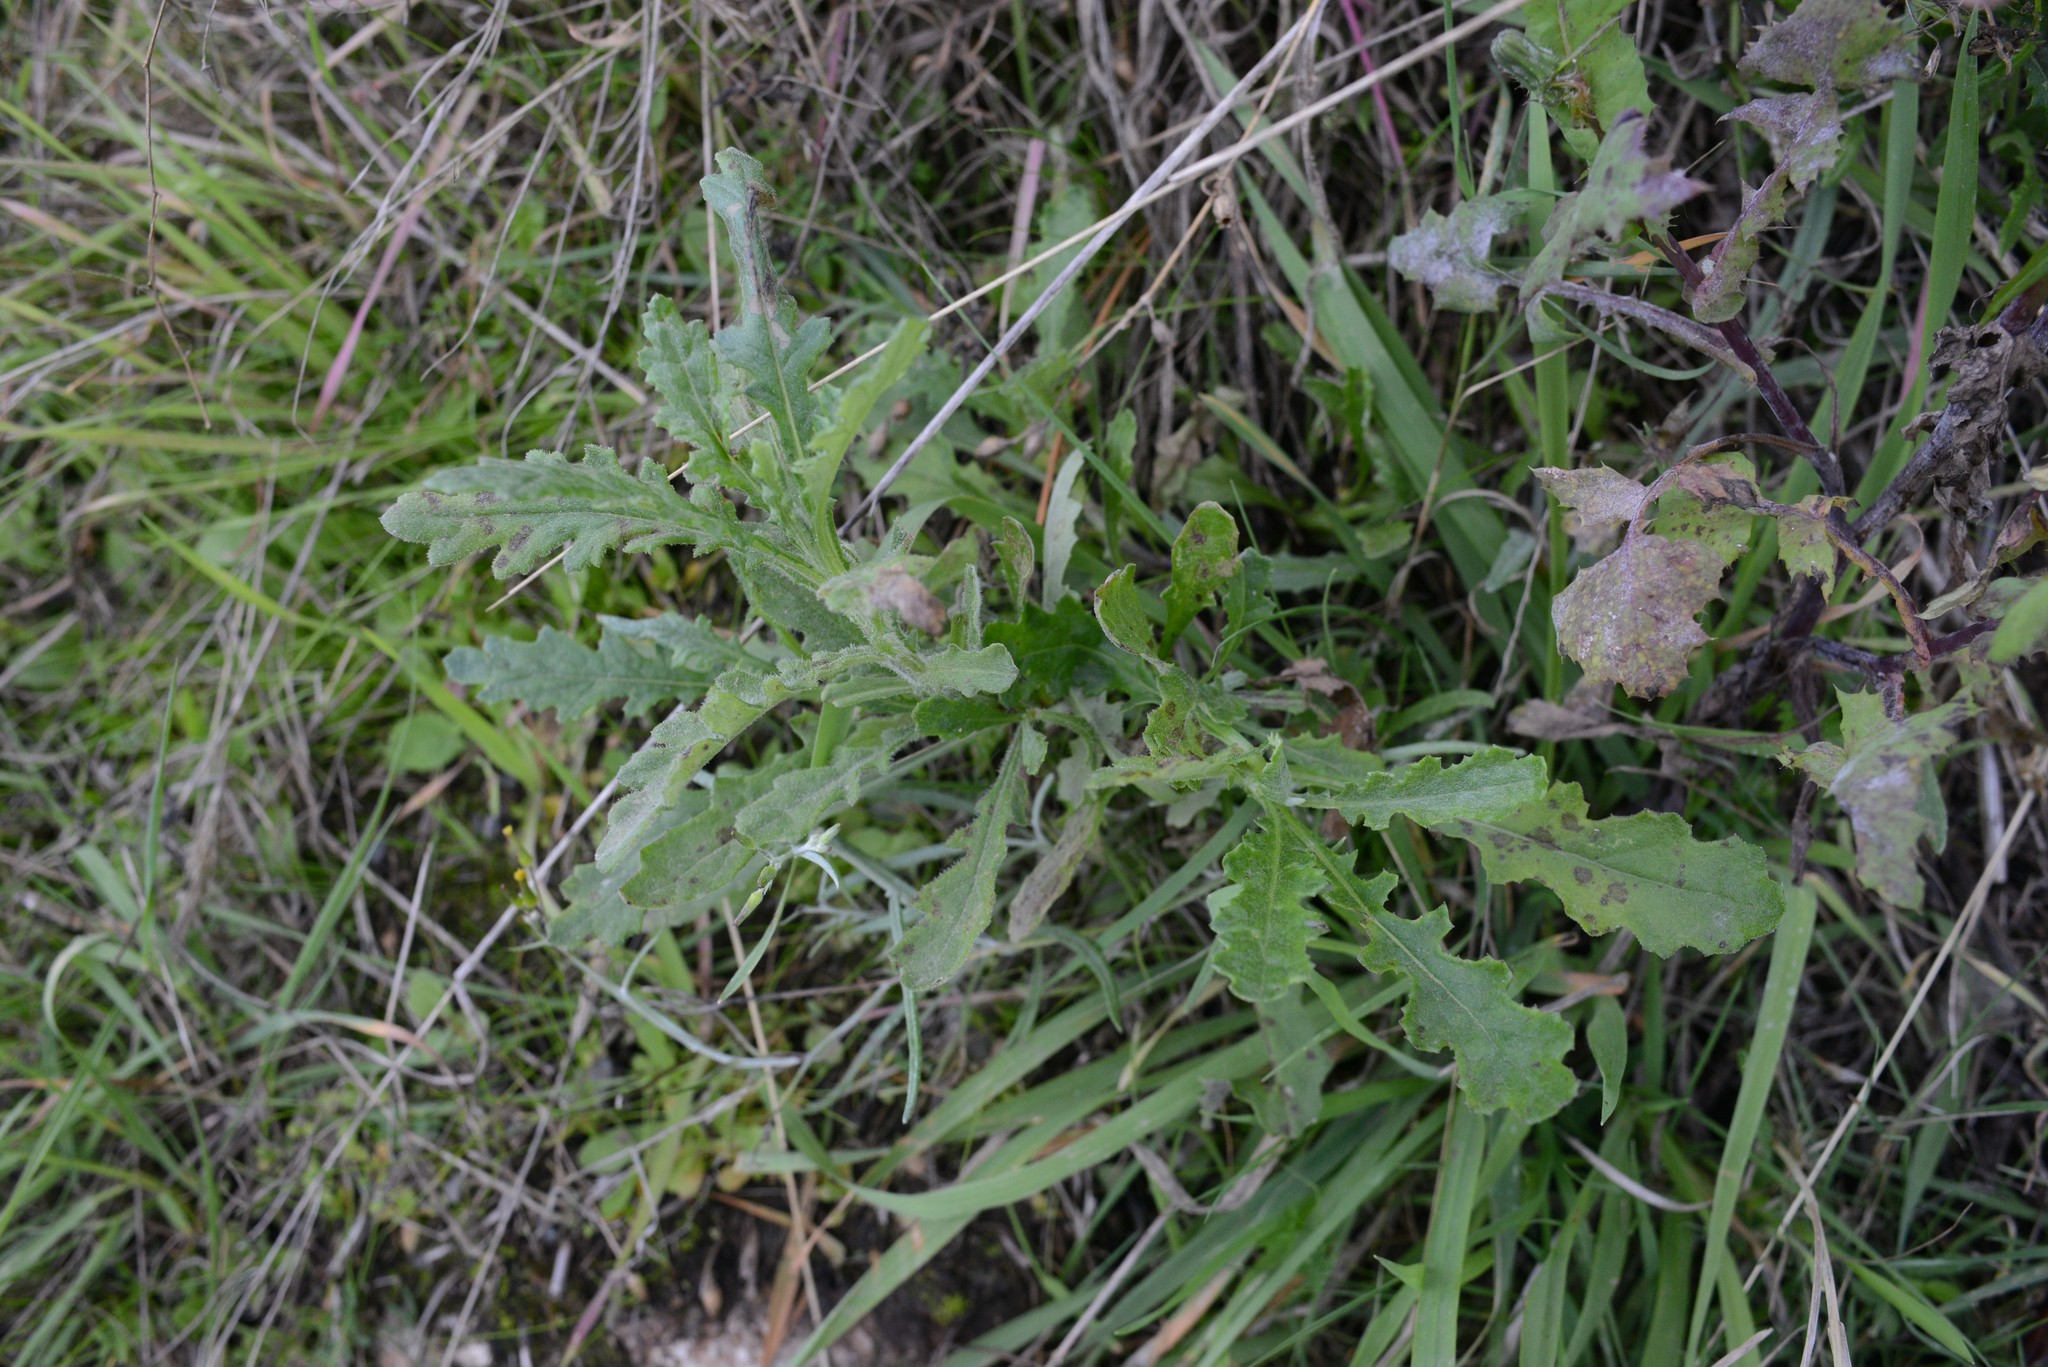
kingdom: Plantae
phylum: Tracheophyta
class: Magnoliopsida
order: Asterales
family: Asteraceae
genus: Senecio
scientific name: Senecio glomeratus
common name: Cutleaf burnweed
